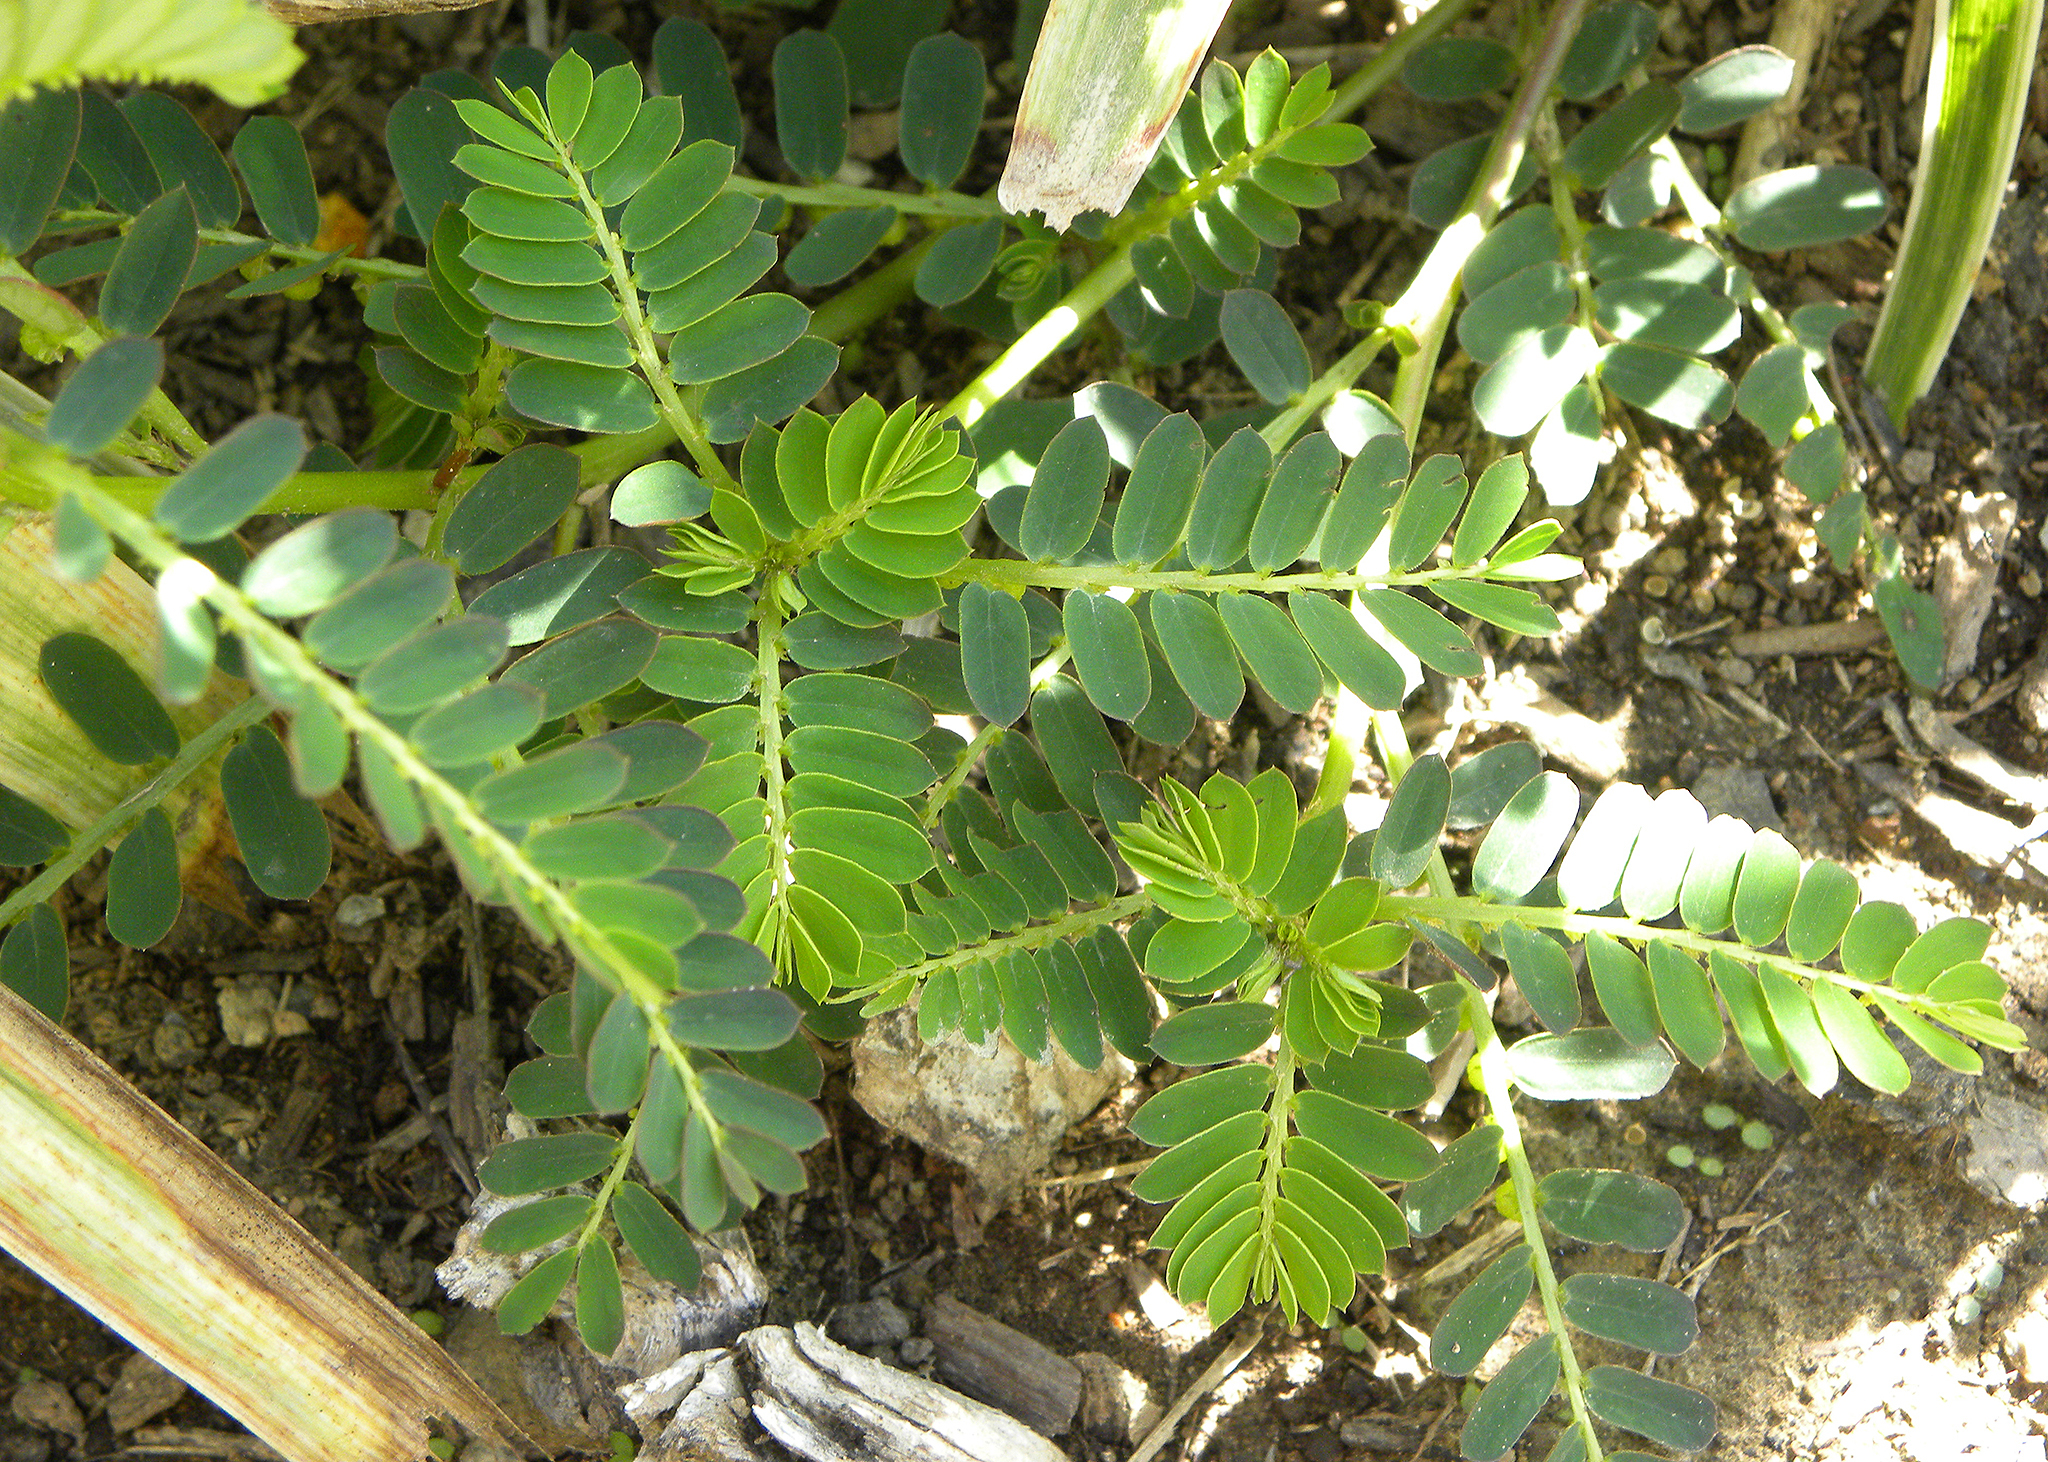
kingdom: Plantae
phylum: Tracheophyta
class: Magnoliopsida
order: Malpighiales
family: Phyllanthaceae
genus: Phyllanthus
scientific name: Phyllanthus urinaria
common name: Chamber bitter
